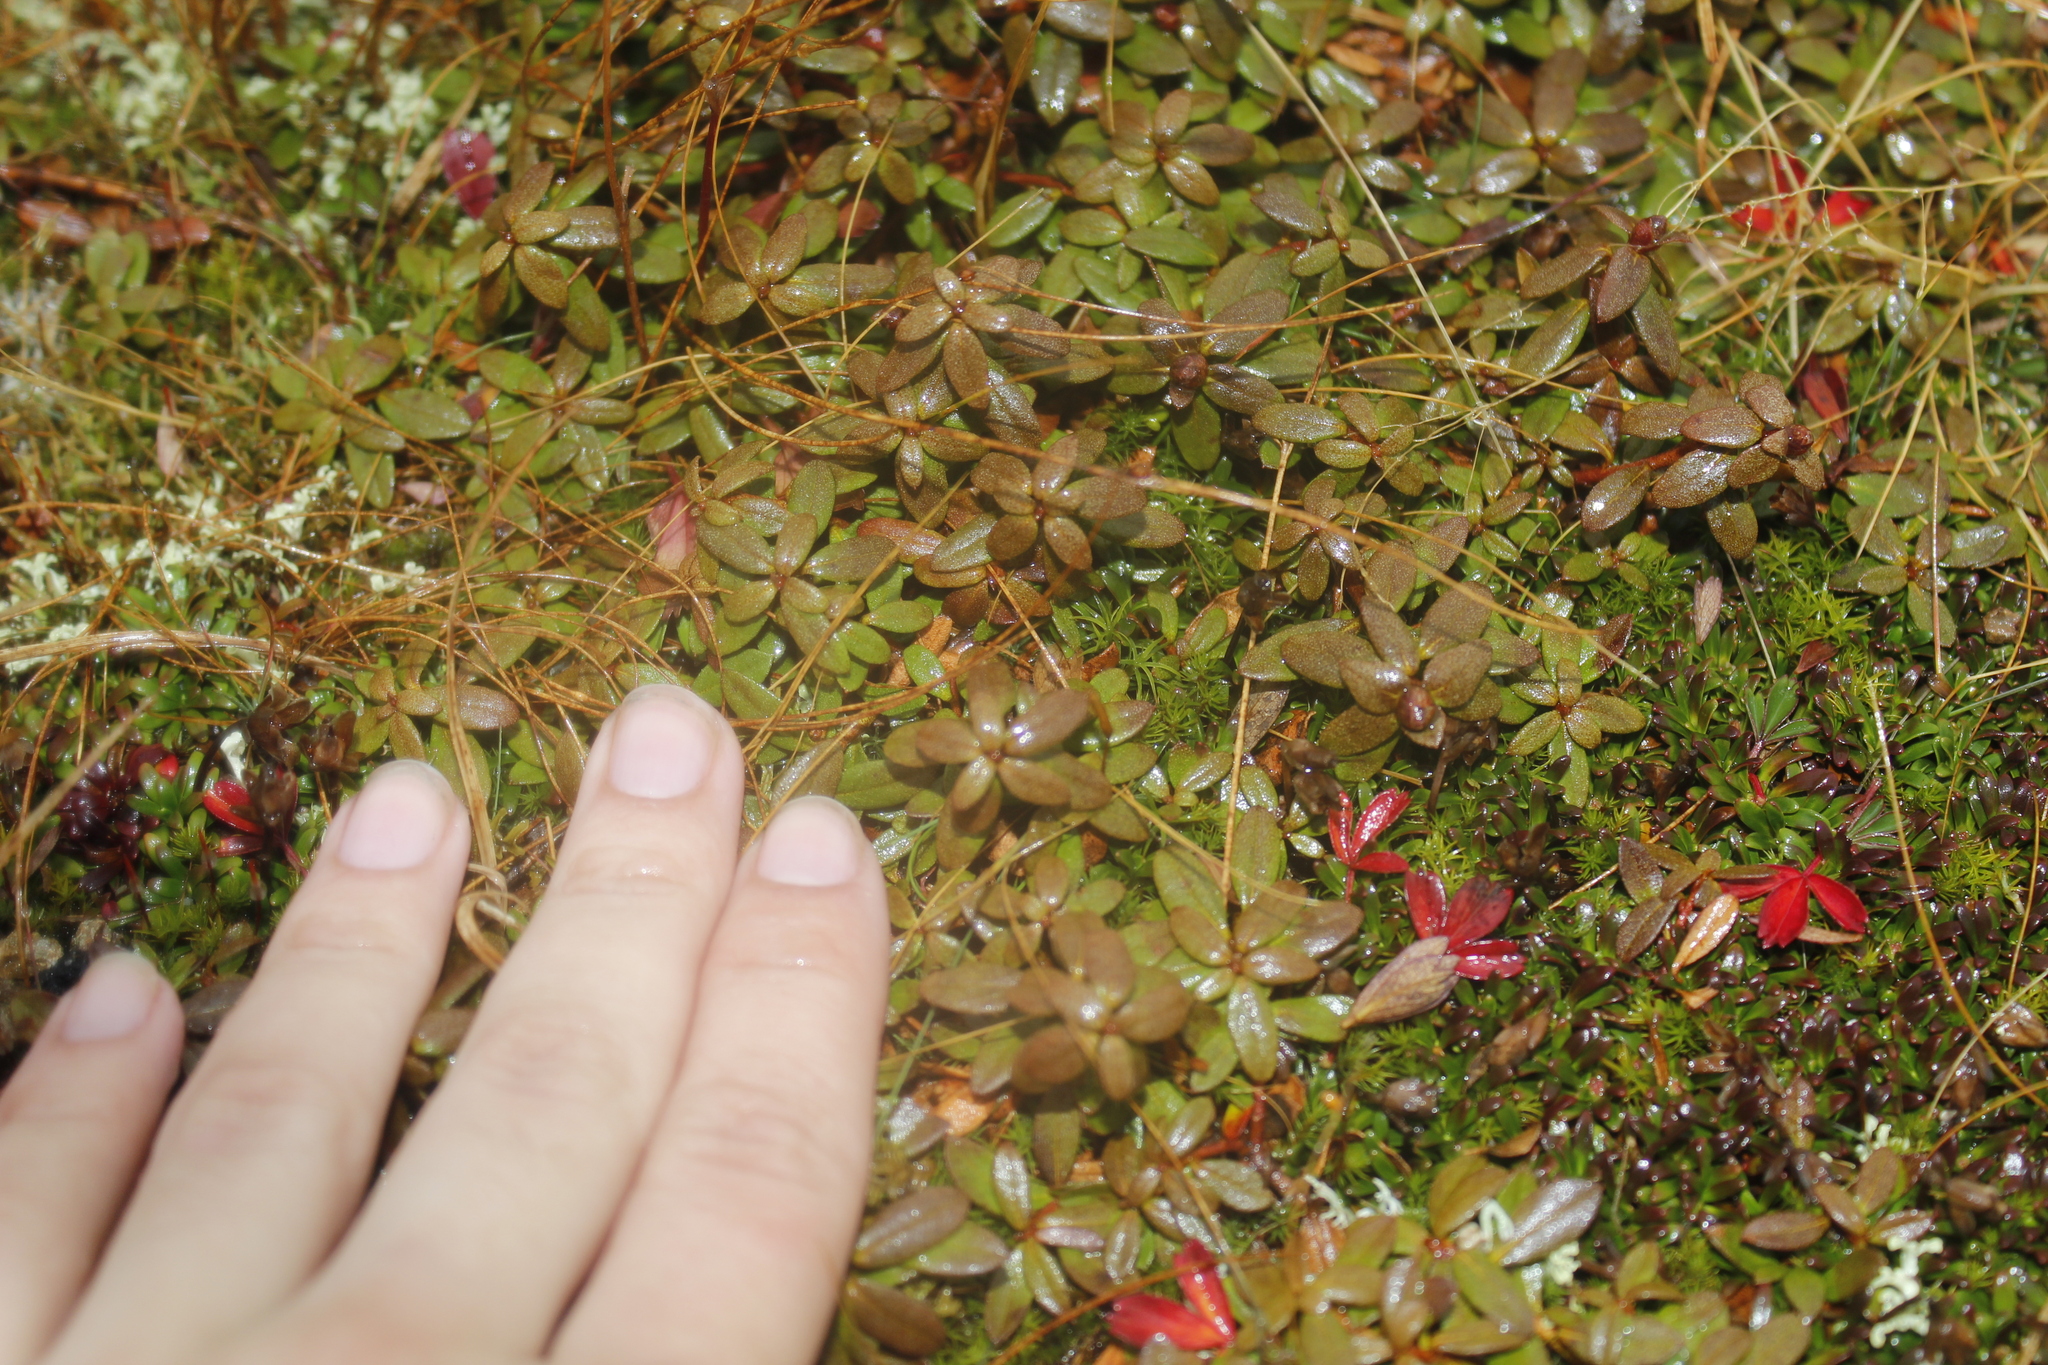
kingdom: Plantae
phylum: Tracheophyta
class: Magnoliopsida
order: Ericales
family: Ericaceae
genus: Rhododendron
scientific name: Rhododendron lapponicum
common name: Lapland rhododendron
